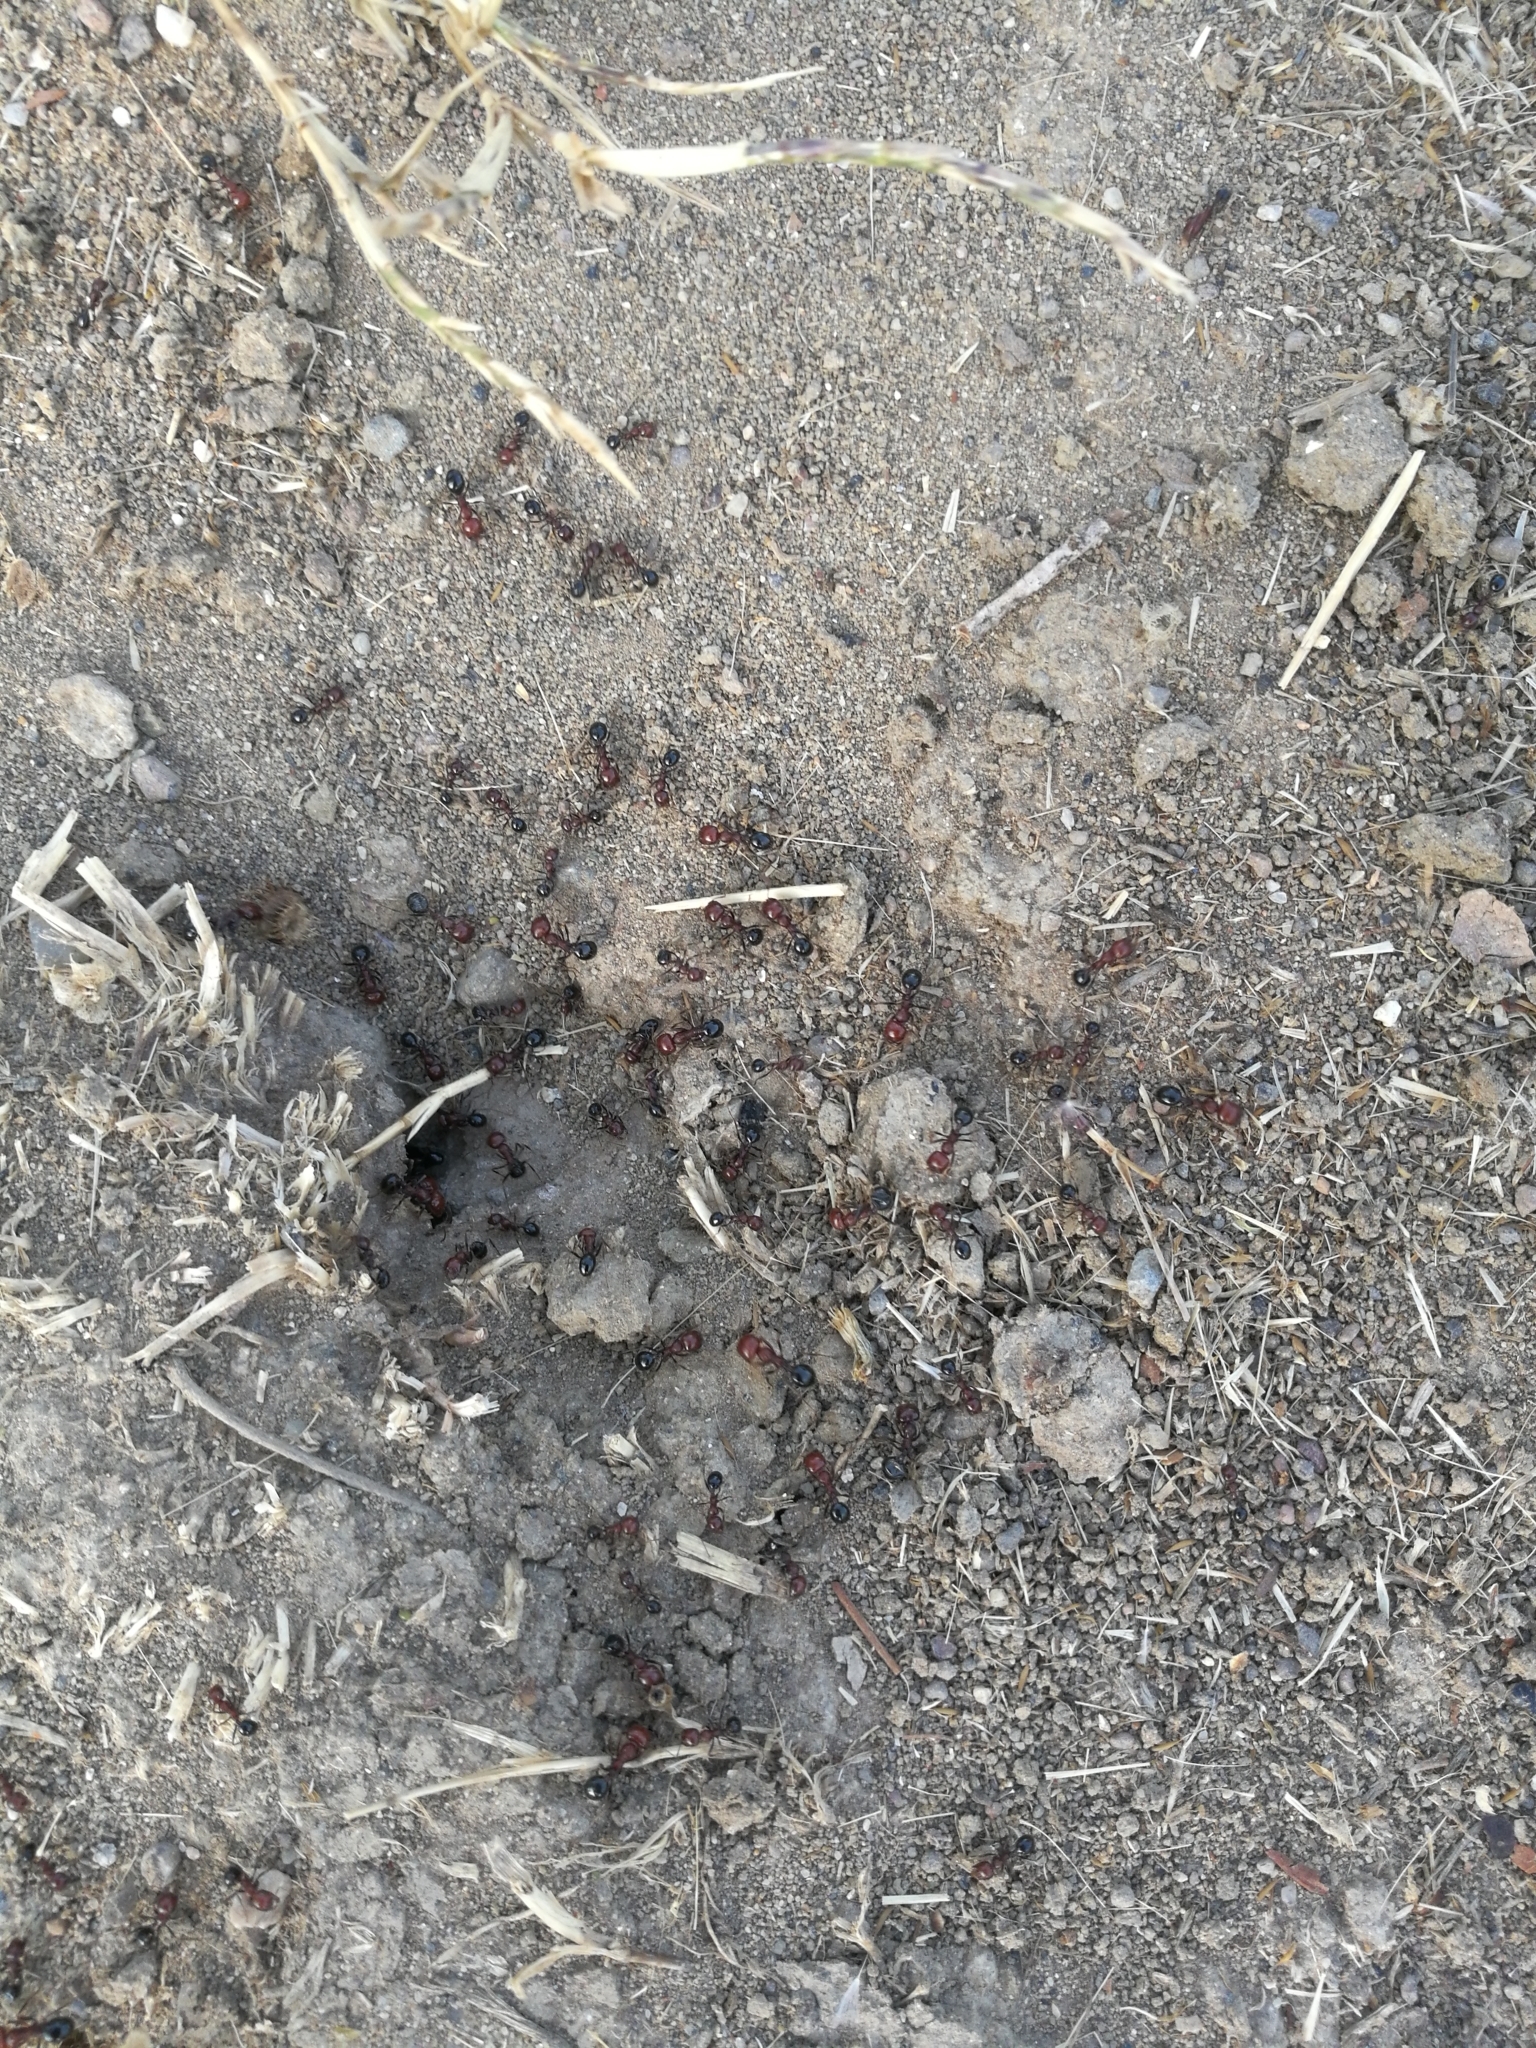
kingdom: Animalia
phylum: Arthropoda
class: Insecta
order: Hymenoptera
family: Formicidae
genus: Messor
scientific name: Messor minor
